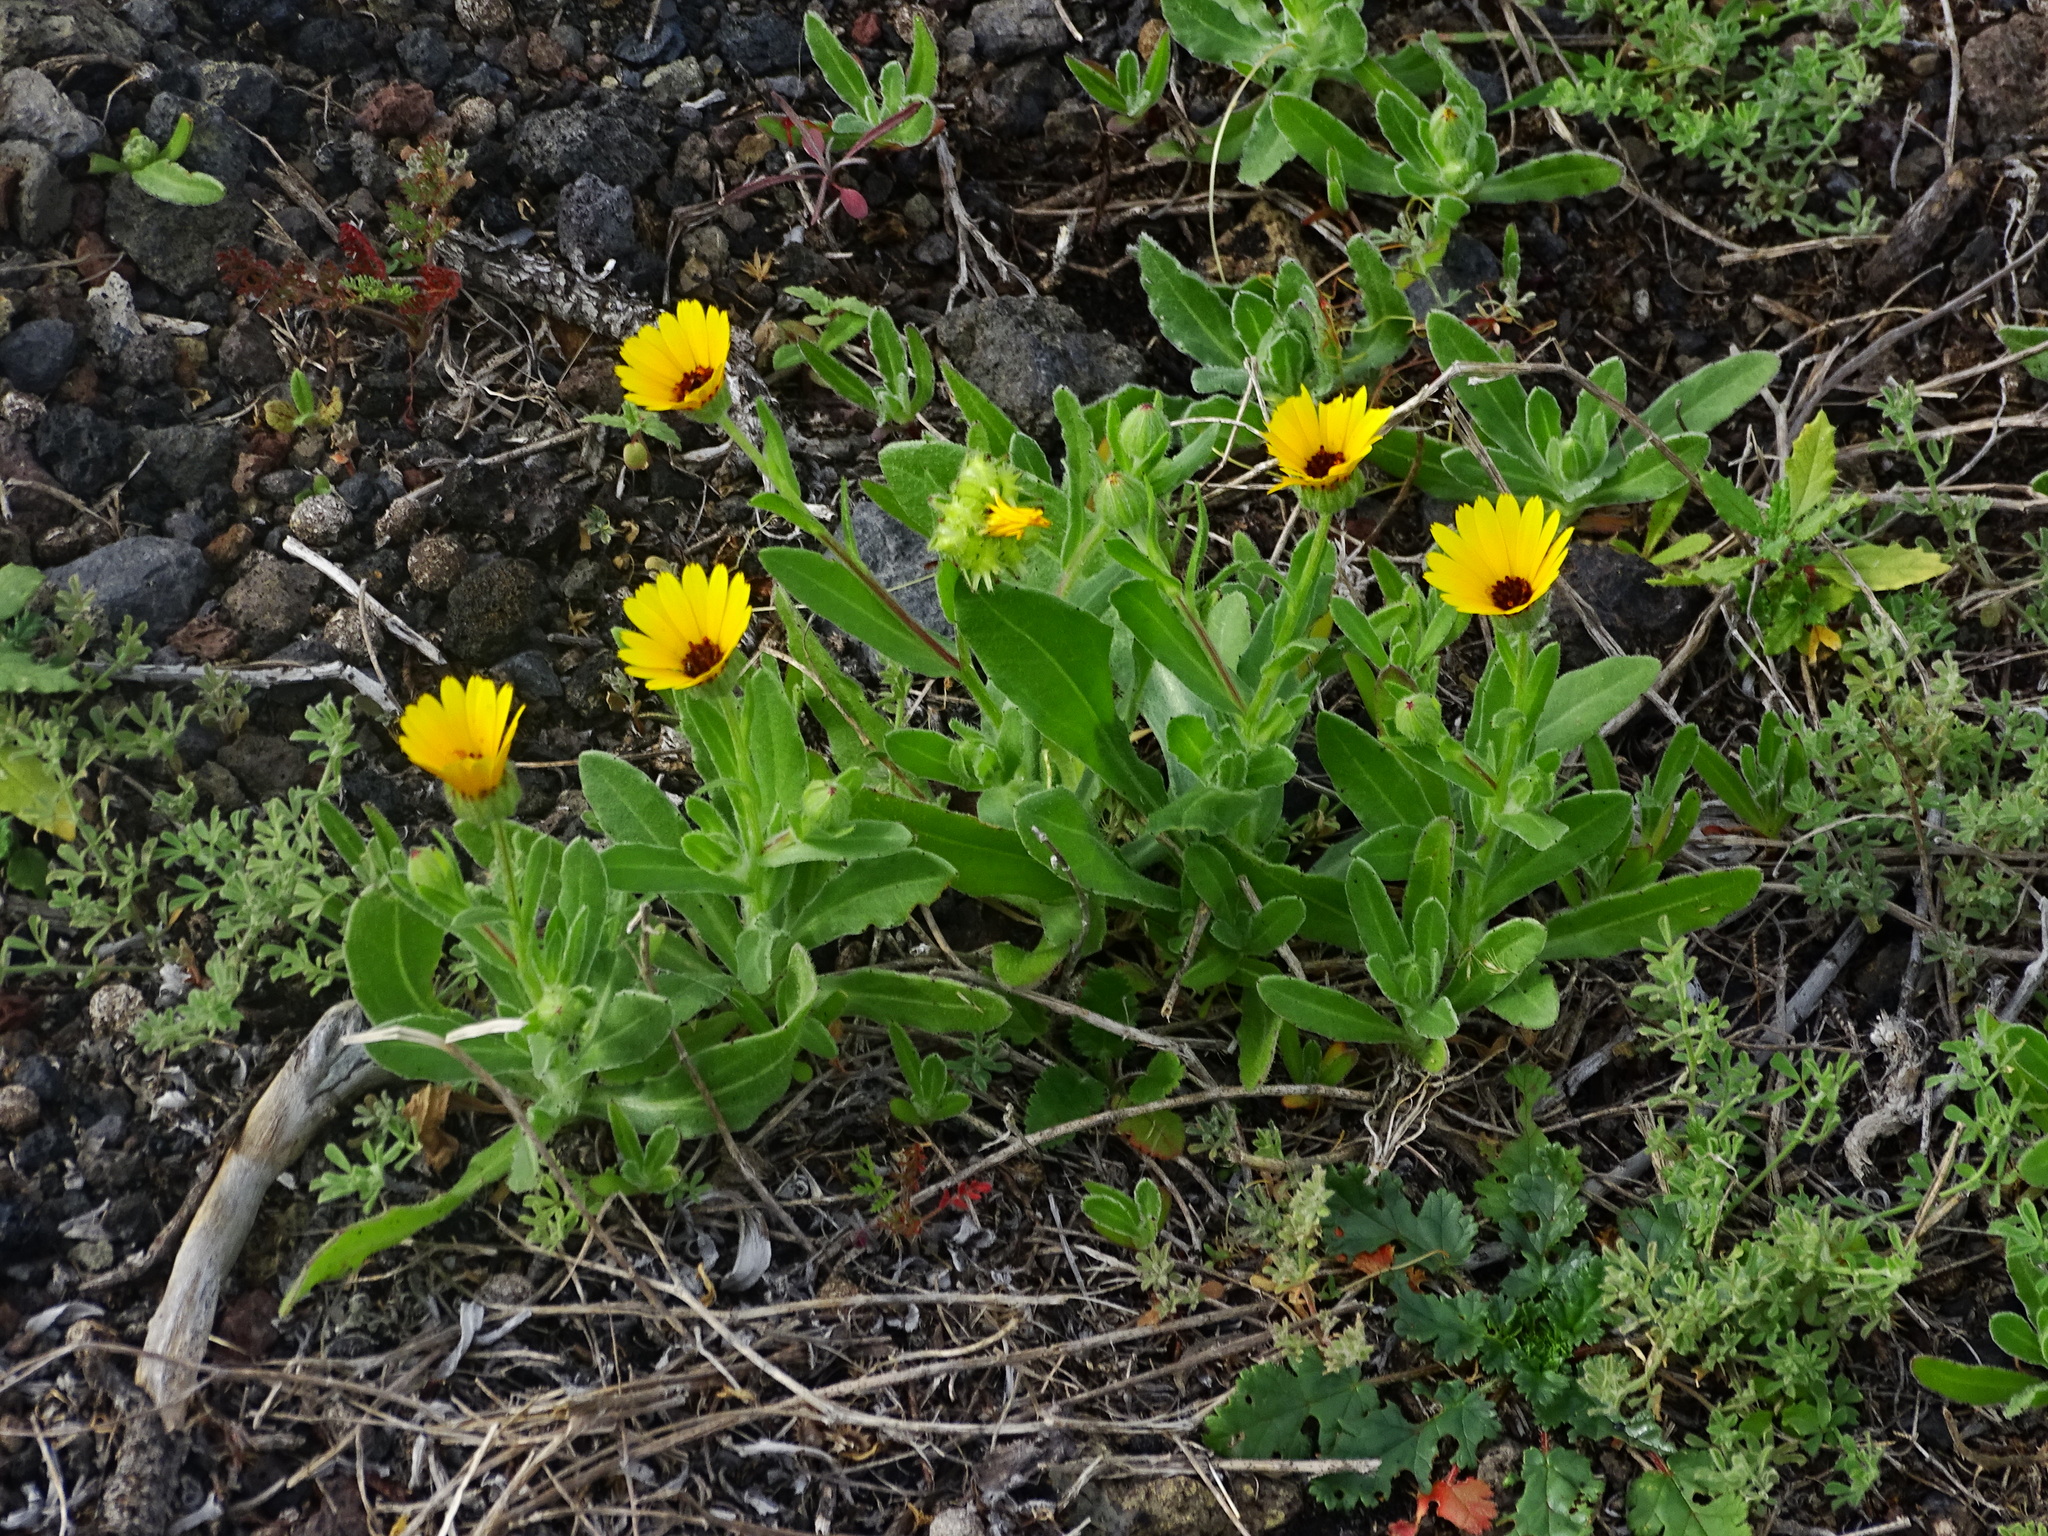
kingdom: Plantae
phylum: Tracheophyta
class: Magnoliopsida
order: Asterales
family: Asteraceae
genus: Calendula
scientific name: Calendula arvensis
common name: Field marigold
